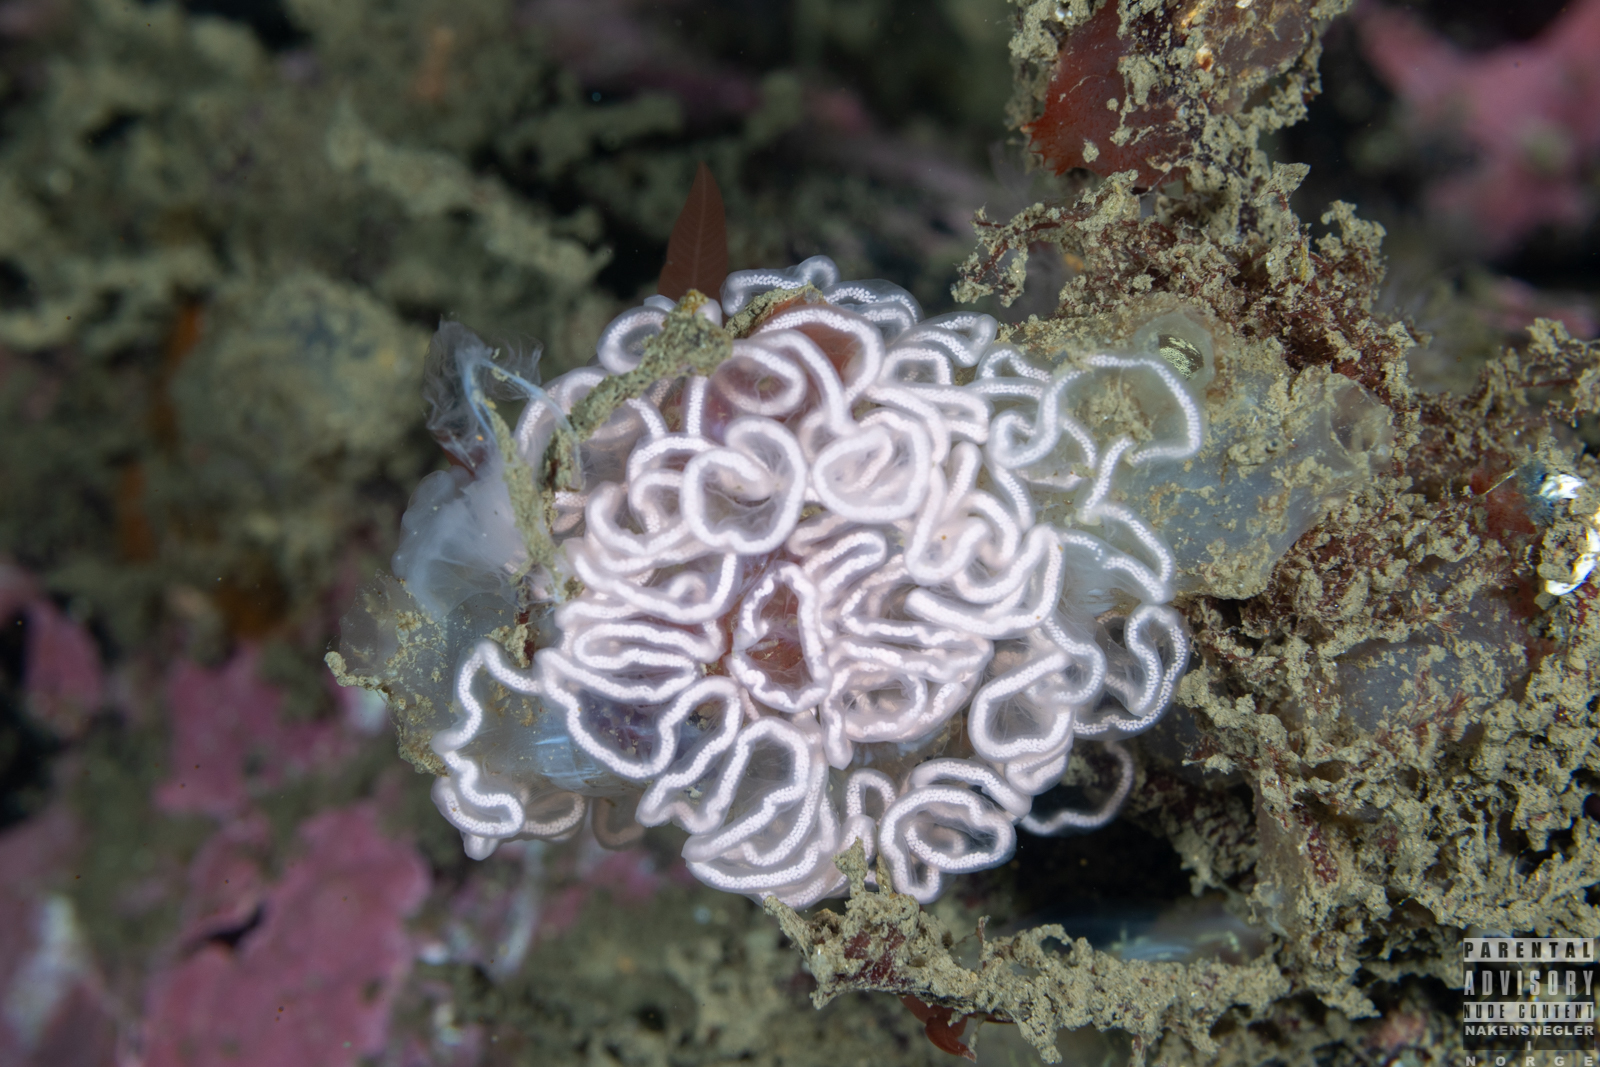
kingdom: Animalia
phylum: Mollusca
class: Gastropoda
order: Nudibranchia
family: Tritoniidae
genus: Tritonia
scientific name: Tritonia hombergii
